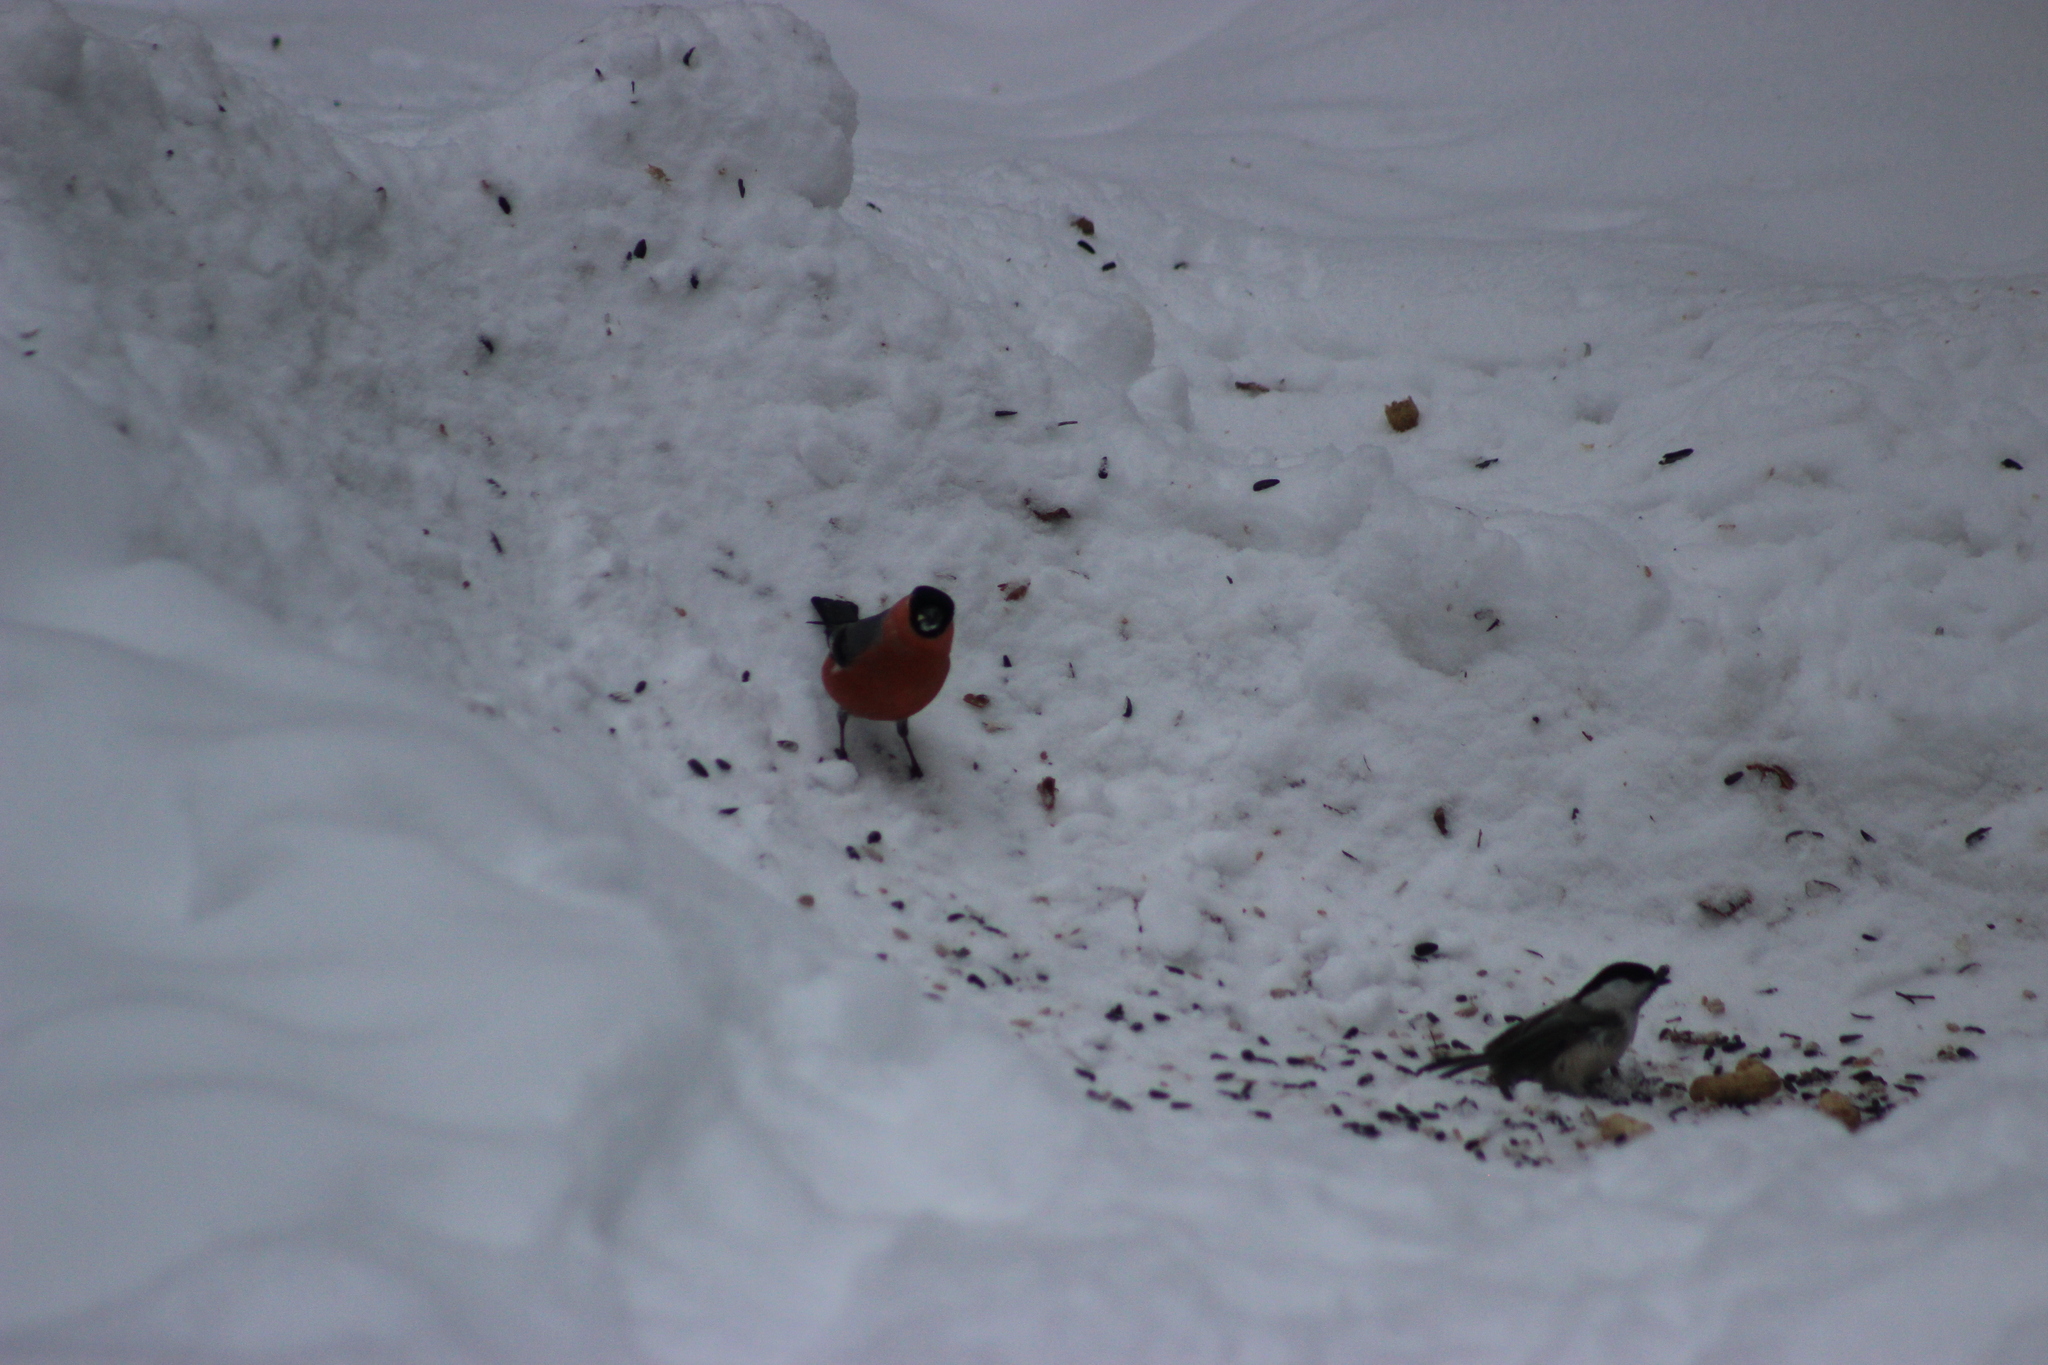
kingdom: Animalia
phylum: Chordata
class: Aves
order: Passeriformes
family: Fringillidae
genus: Pyrrhula
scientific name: Pyrrhula pyrrhula
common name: Eurasian bullfinch
